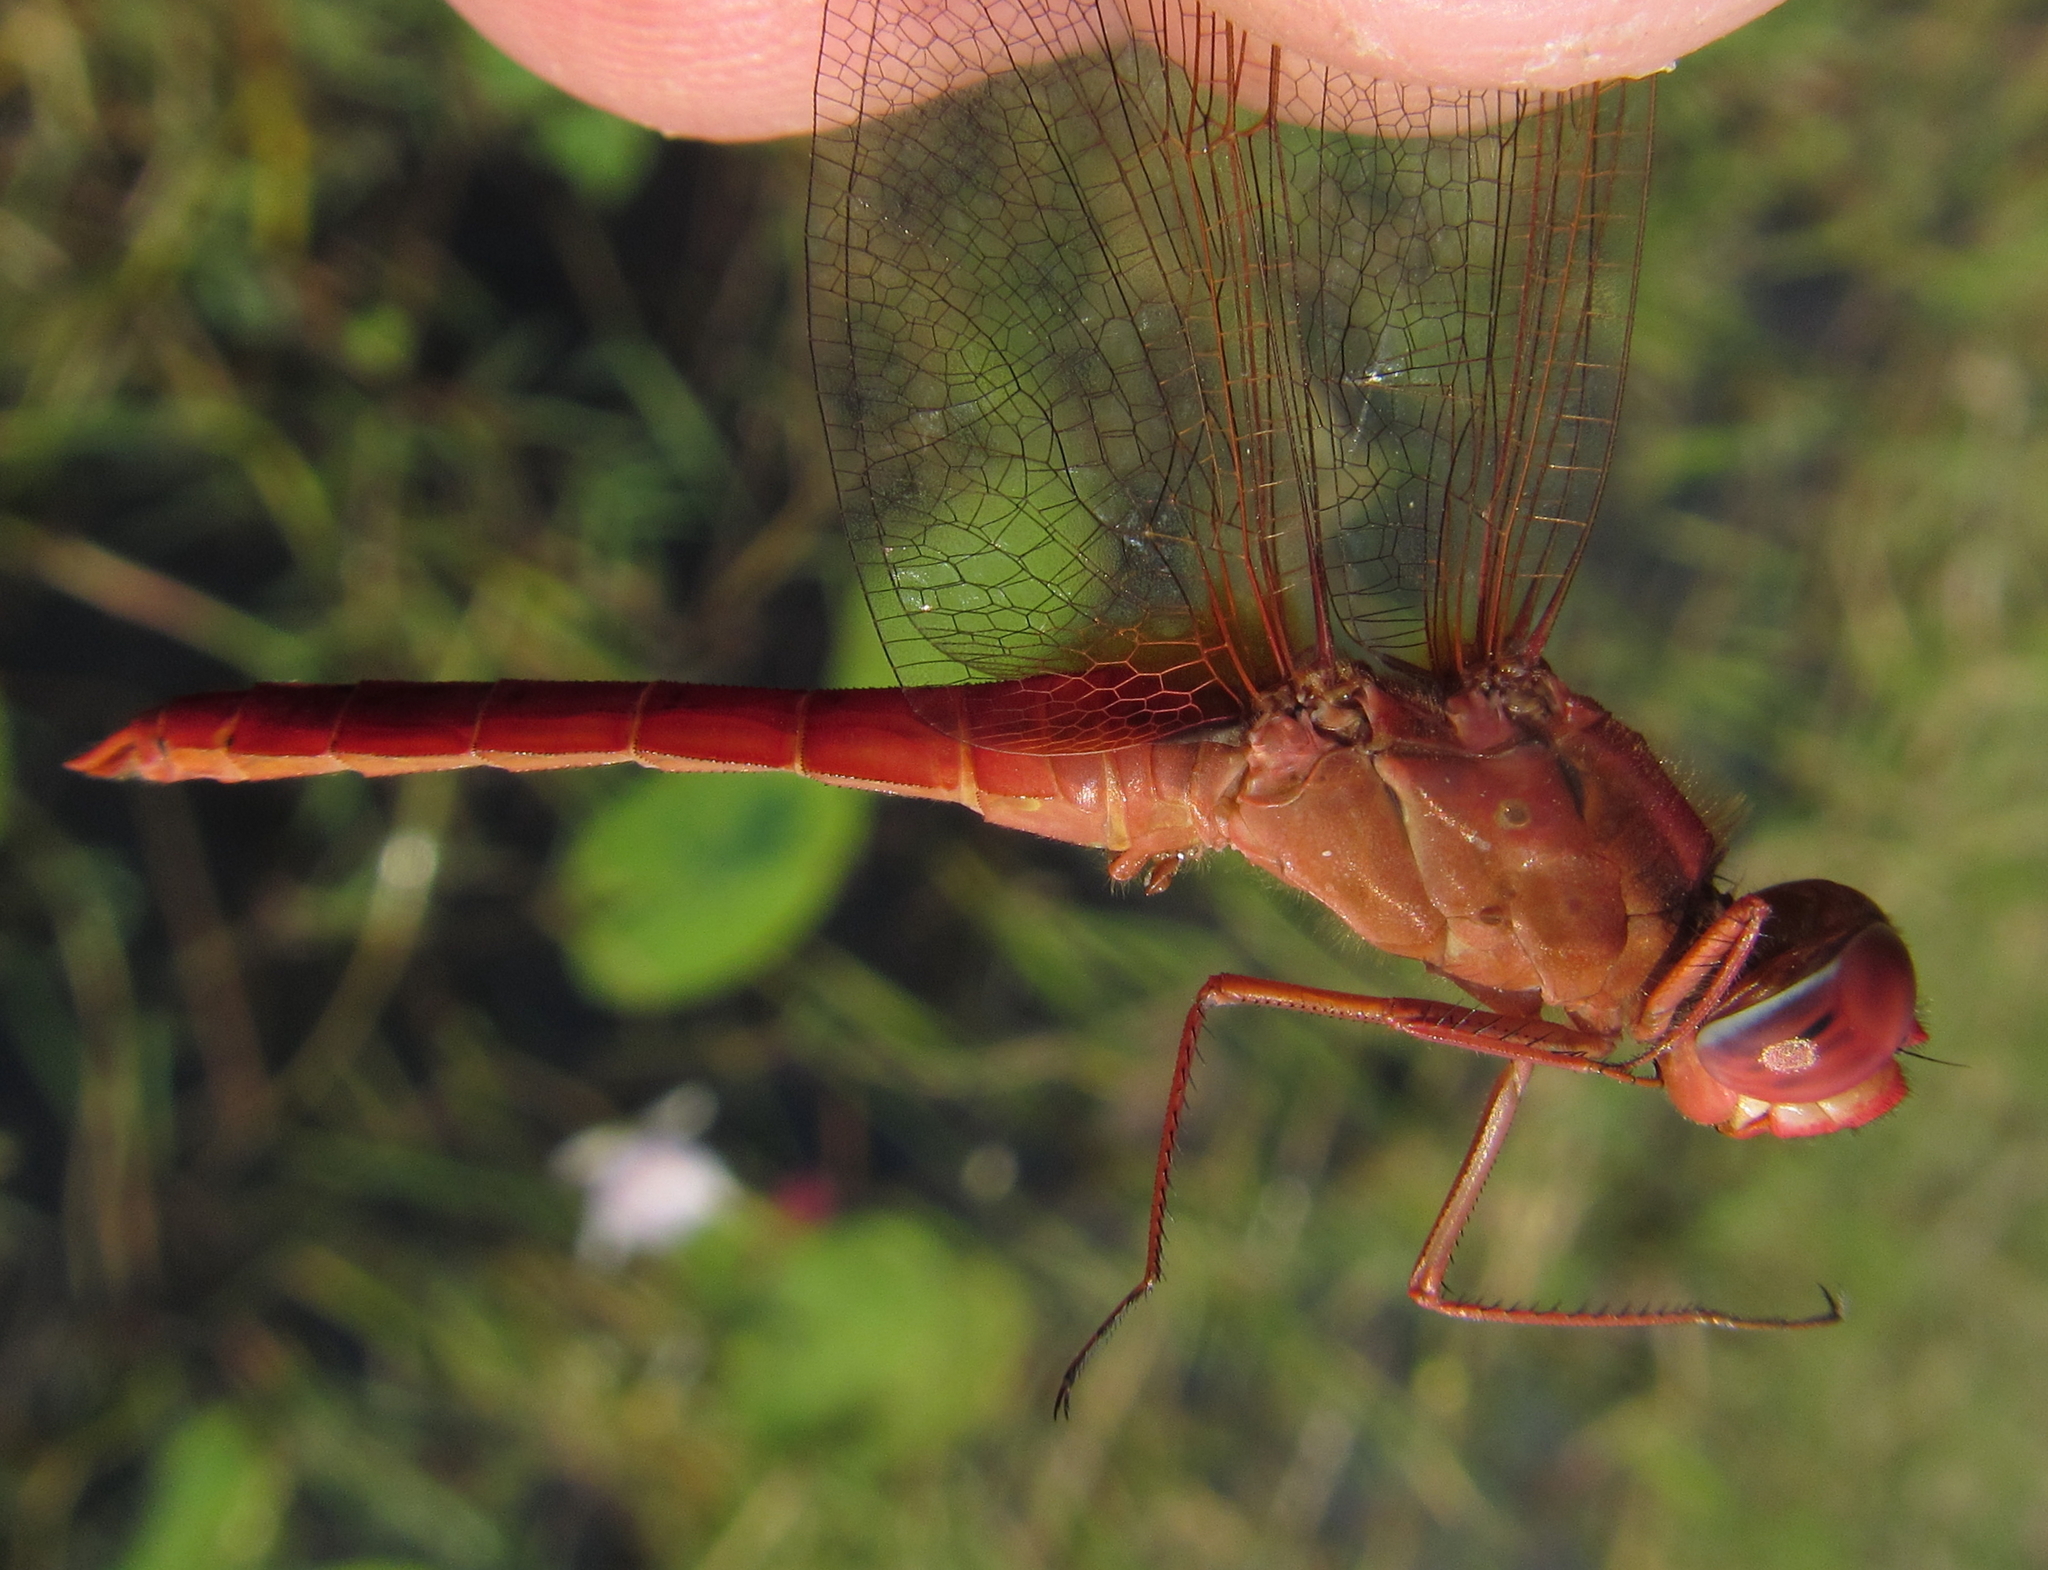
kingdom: Animalia
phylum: Arthropoda
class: Insecta
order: Odonata
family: Libellulidae
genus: Crocothemis
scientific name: Crocothemis erythraea
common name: Scarlet dragonfly
